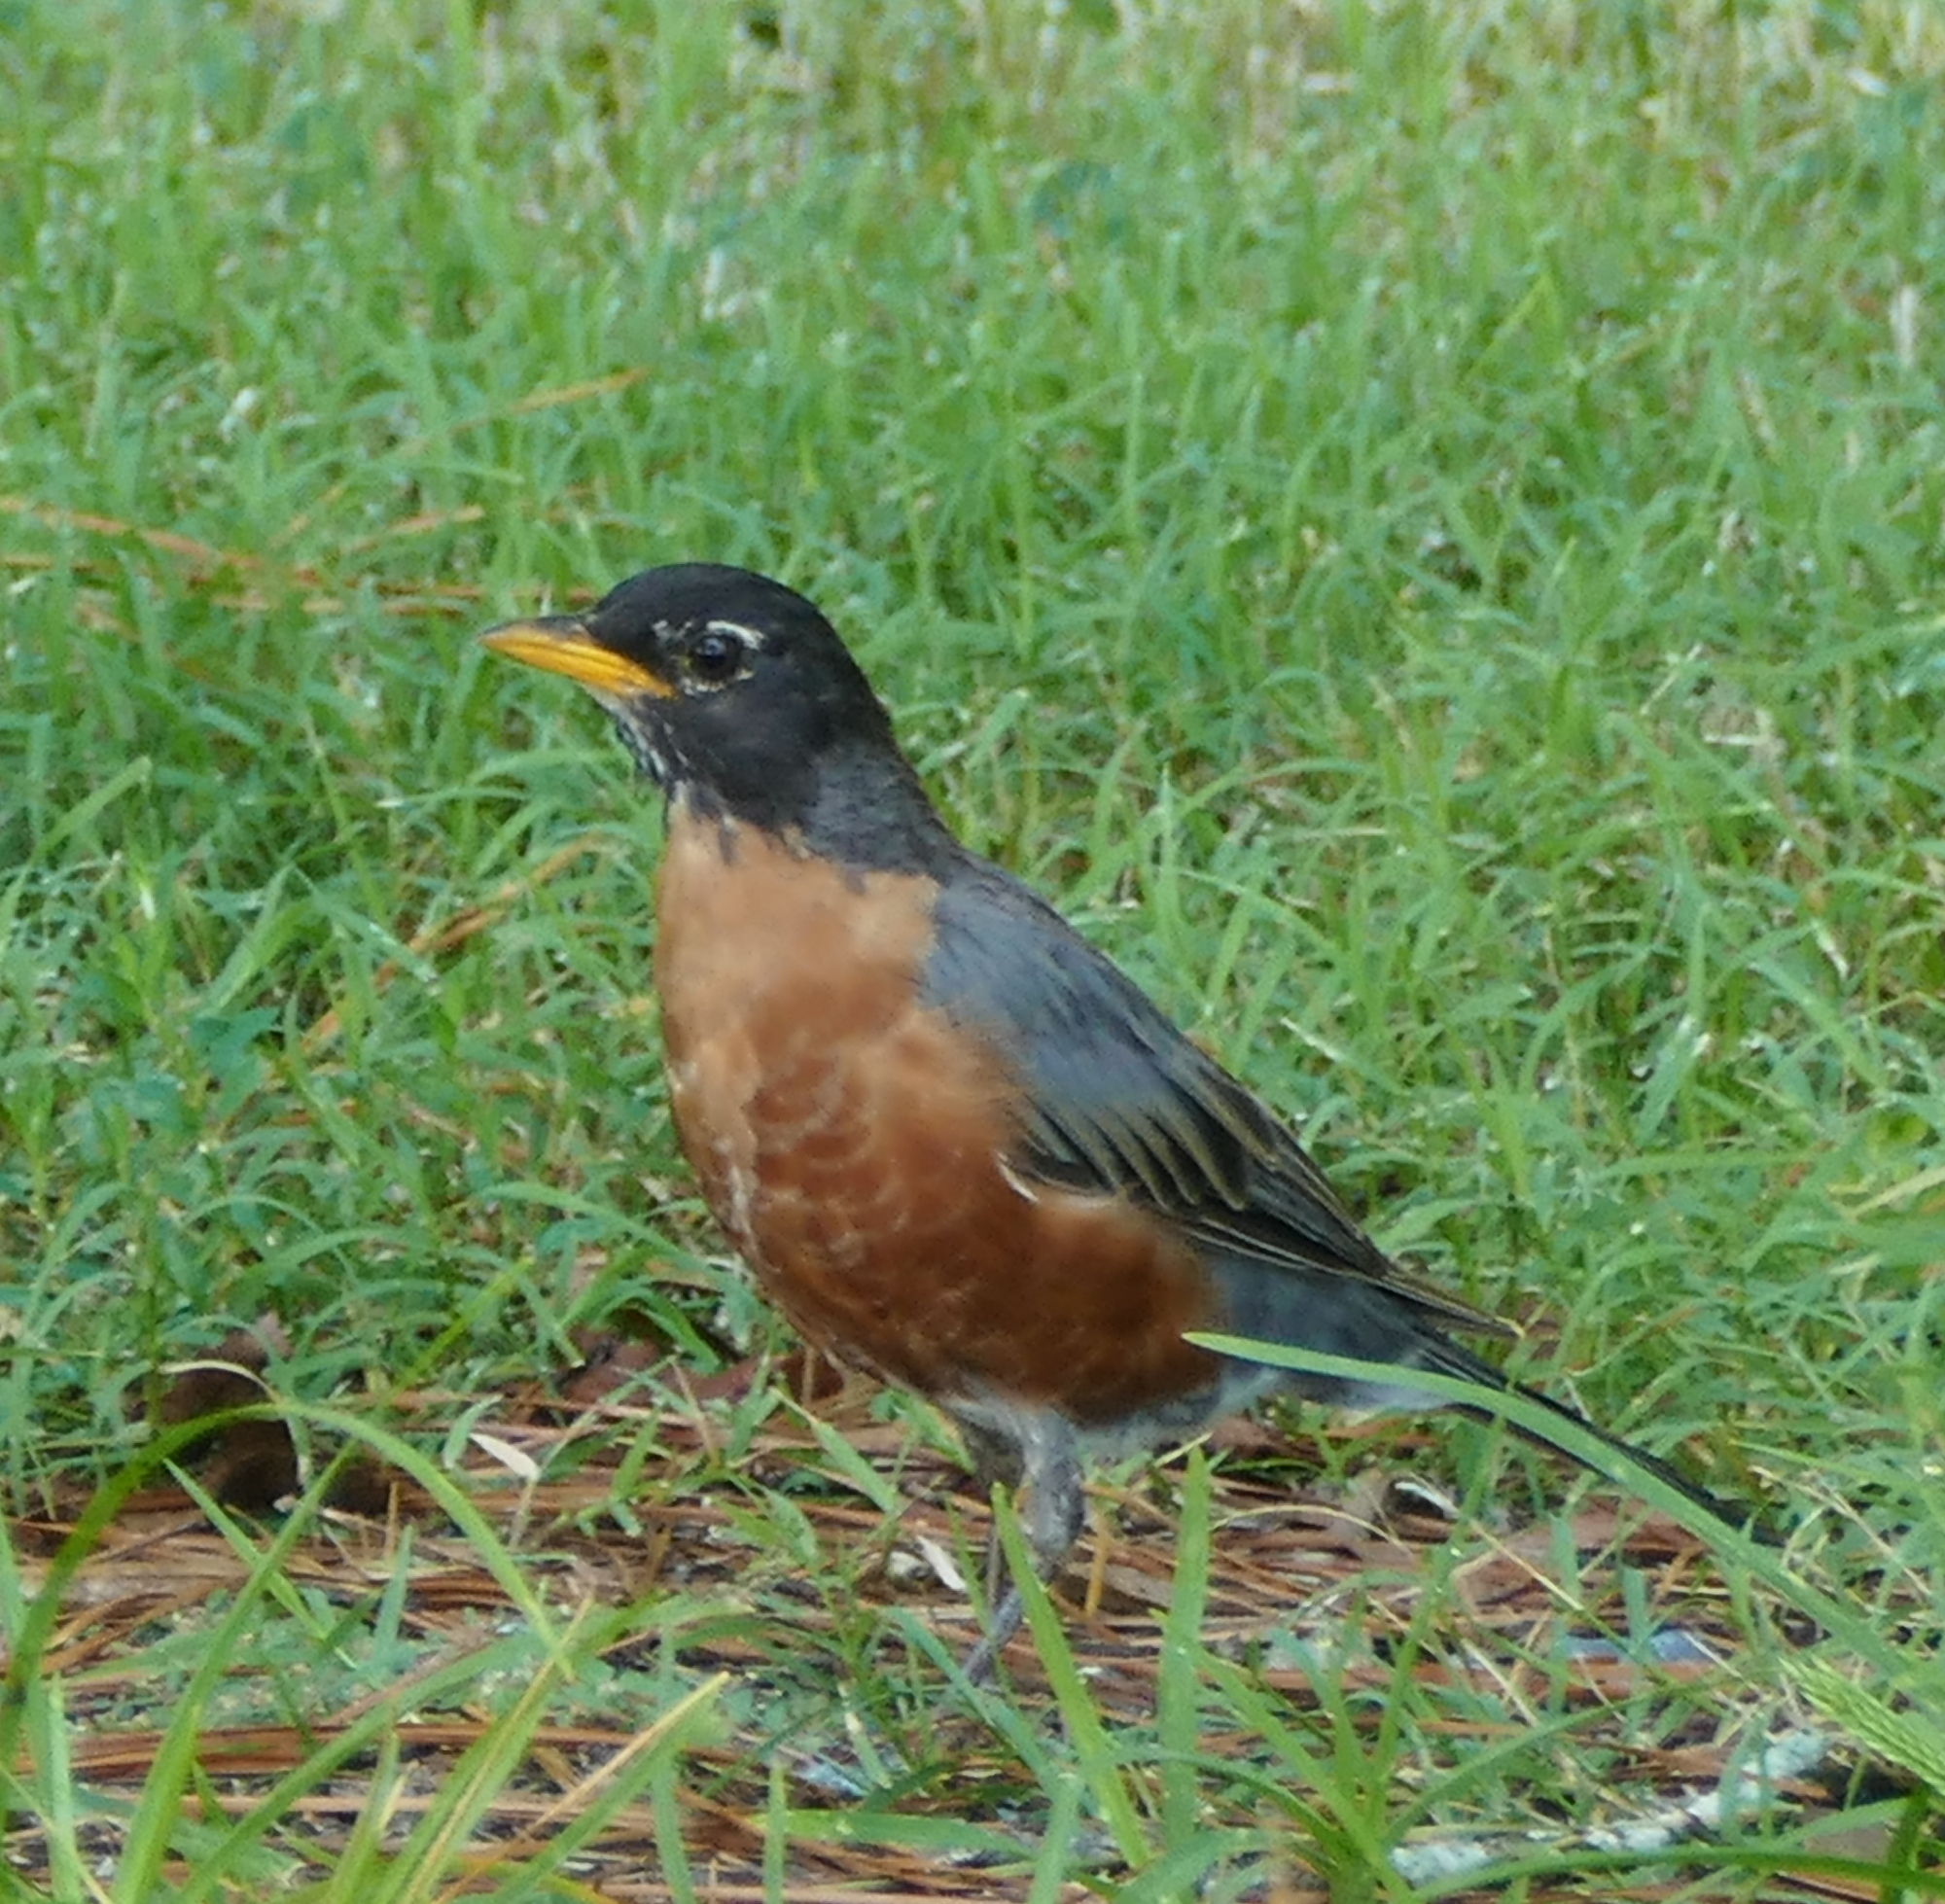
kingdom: Animalia
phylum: Chordata
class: Aves
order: Passeriformes
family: Turdidae
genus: Turdus
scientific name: Turdus migratorius
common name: American robin
